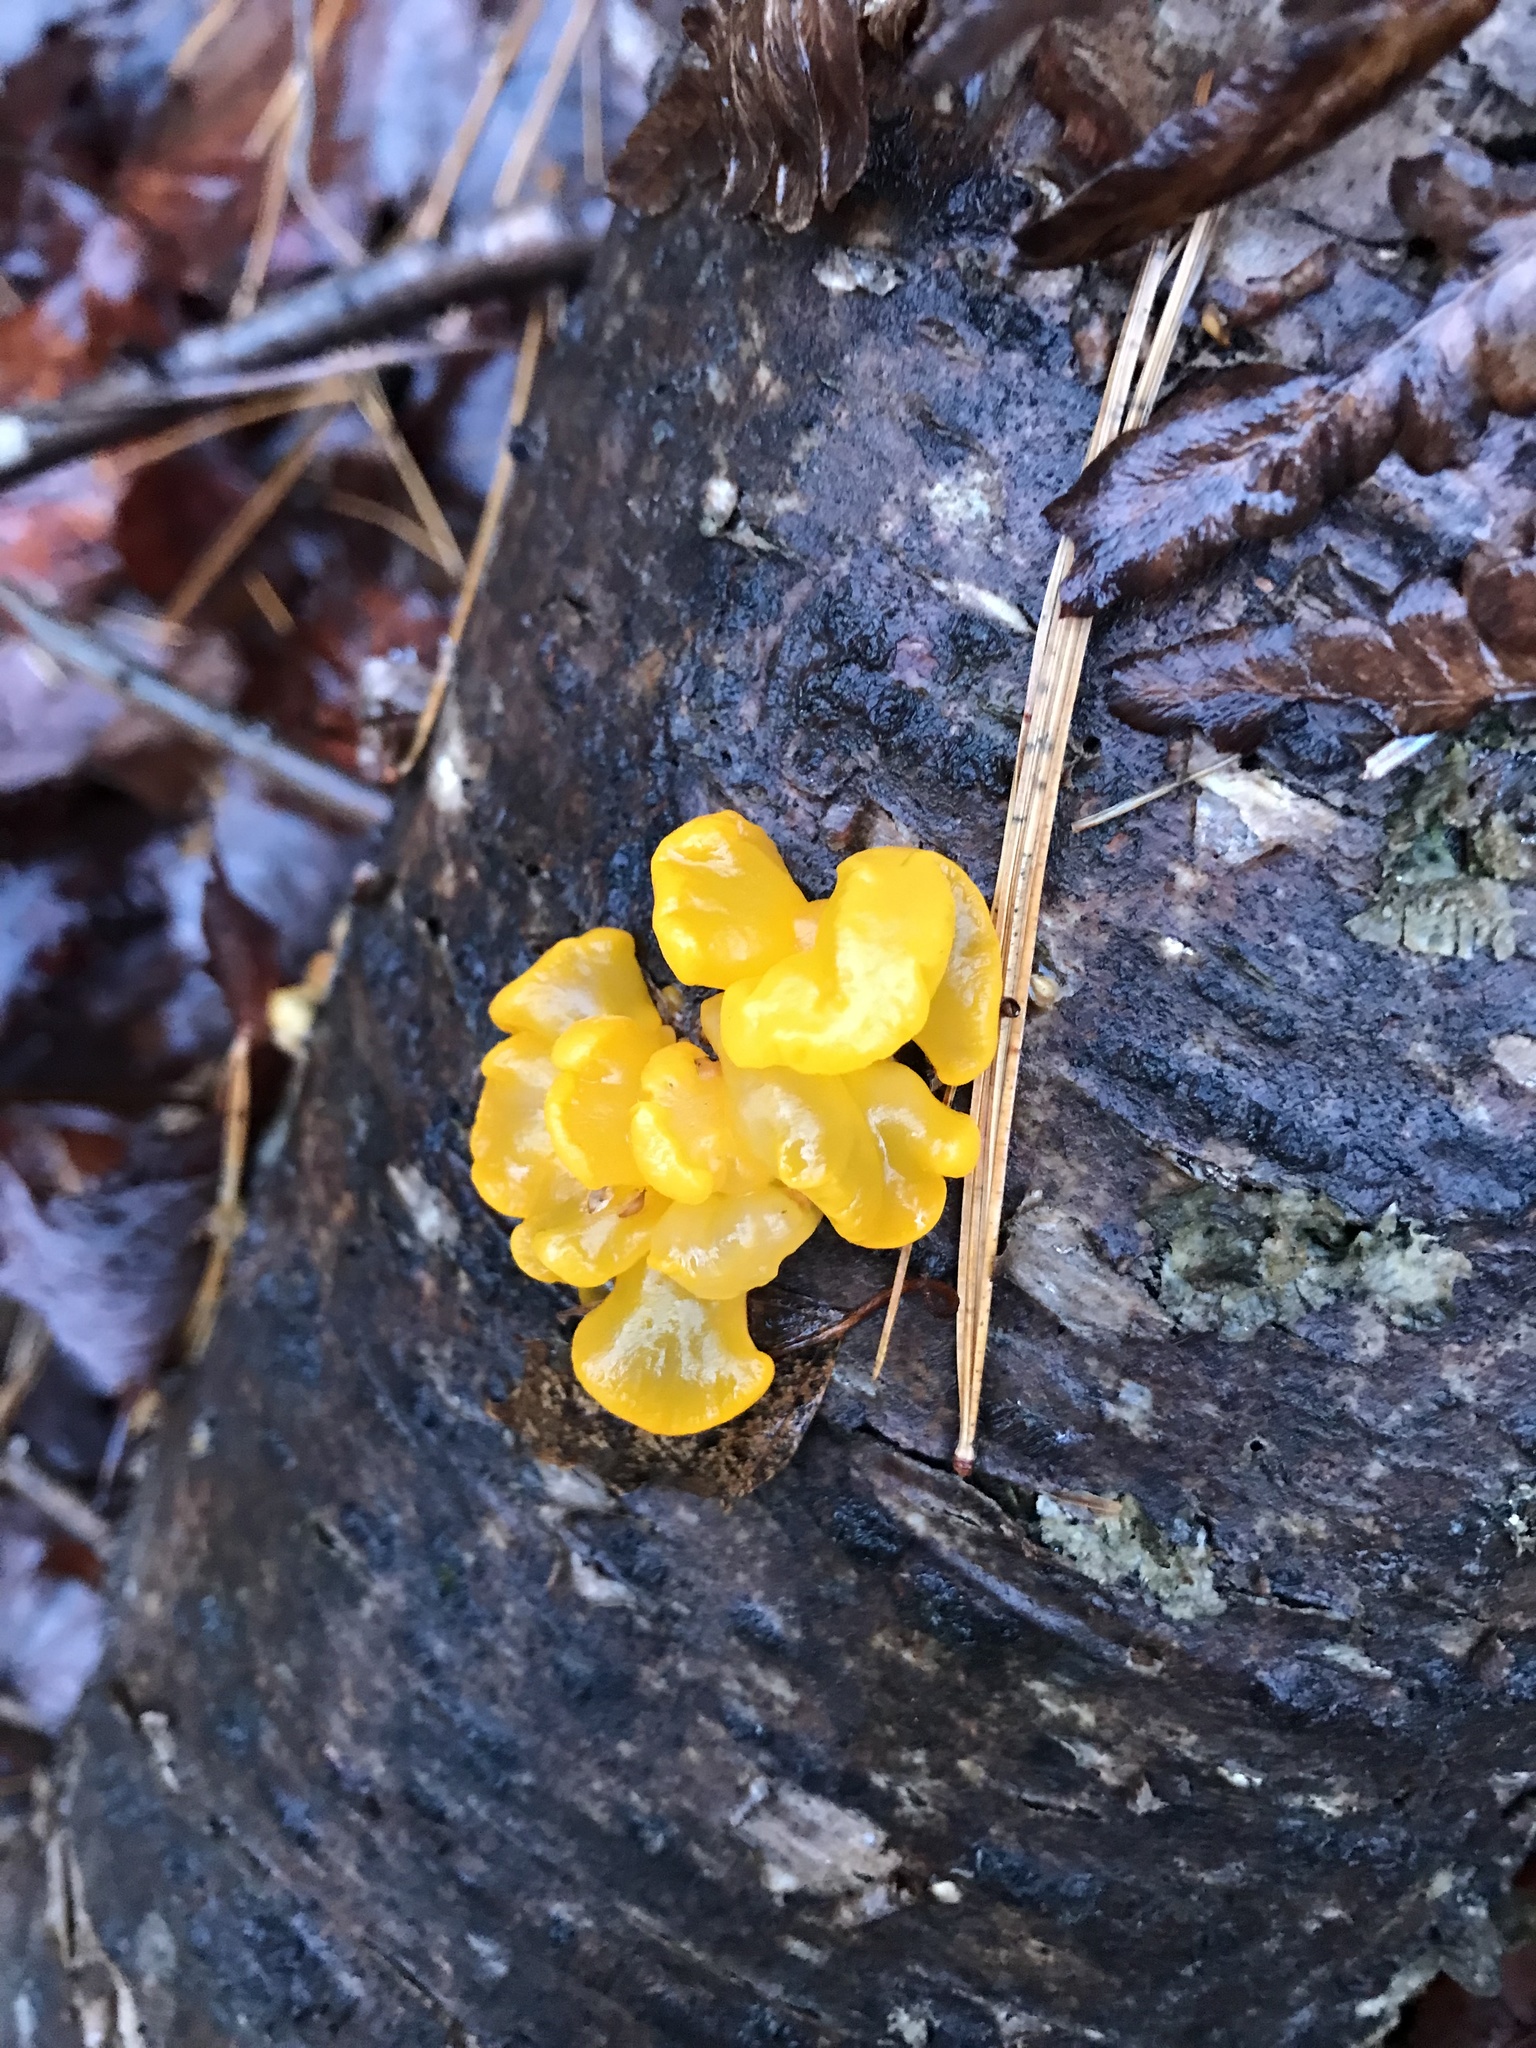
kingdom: Fungi
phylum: Basidiomycota
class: Dacrymycetes
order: Dacrymycetales
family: Dacrymycetaceae
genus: Dacrymyces
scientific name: Dacrymyces chrysospermus
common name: Orange jelly spot
